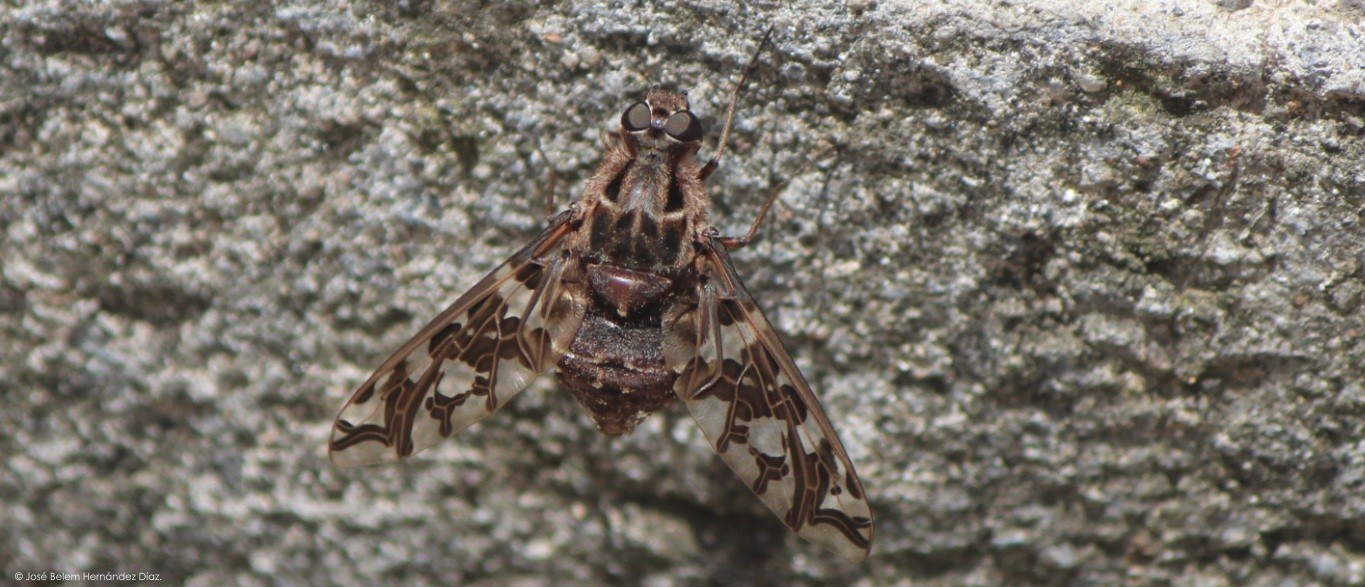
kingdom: Animalia
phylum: Arthropoda
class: Insecta
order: Diptera
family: Bombyliidae
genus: Xenox
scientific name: Xenox habrosus
